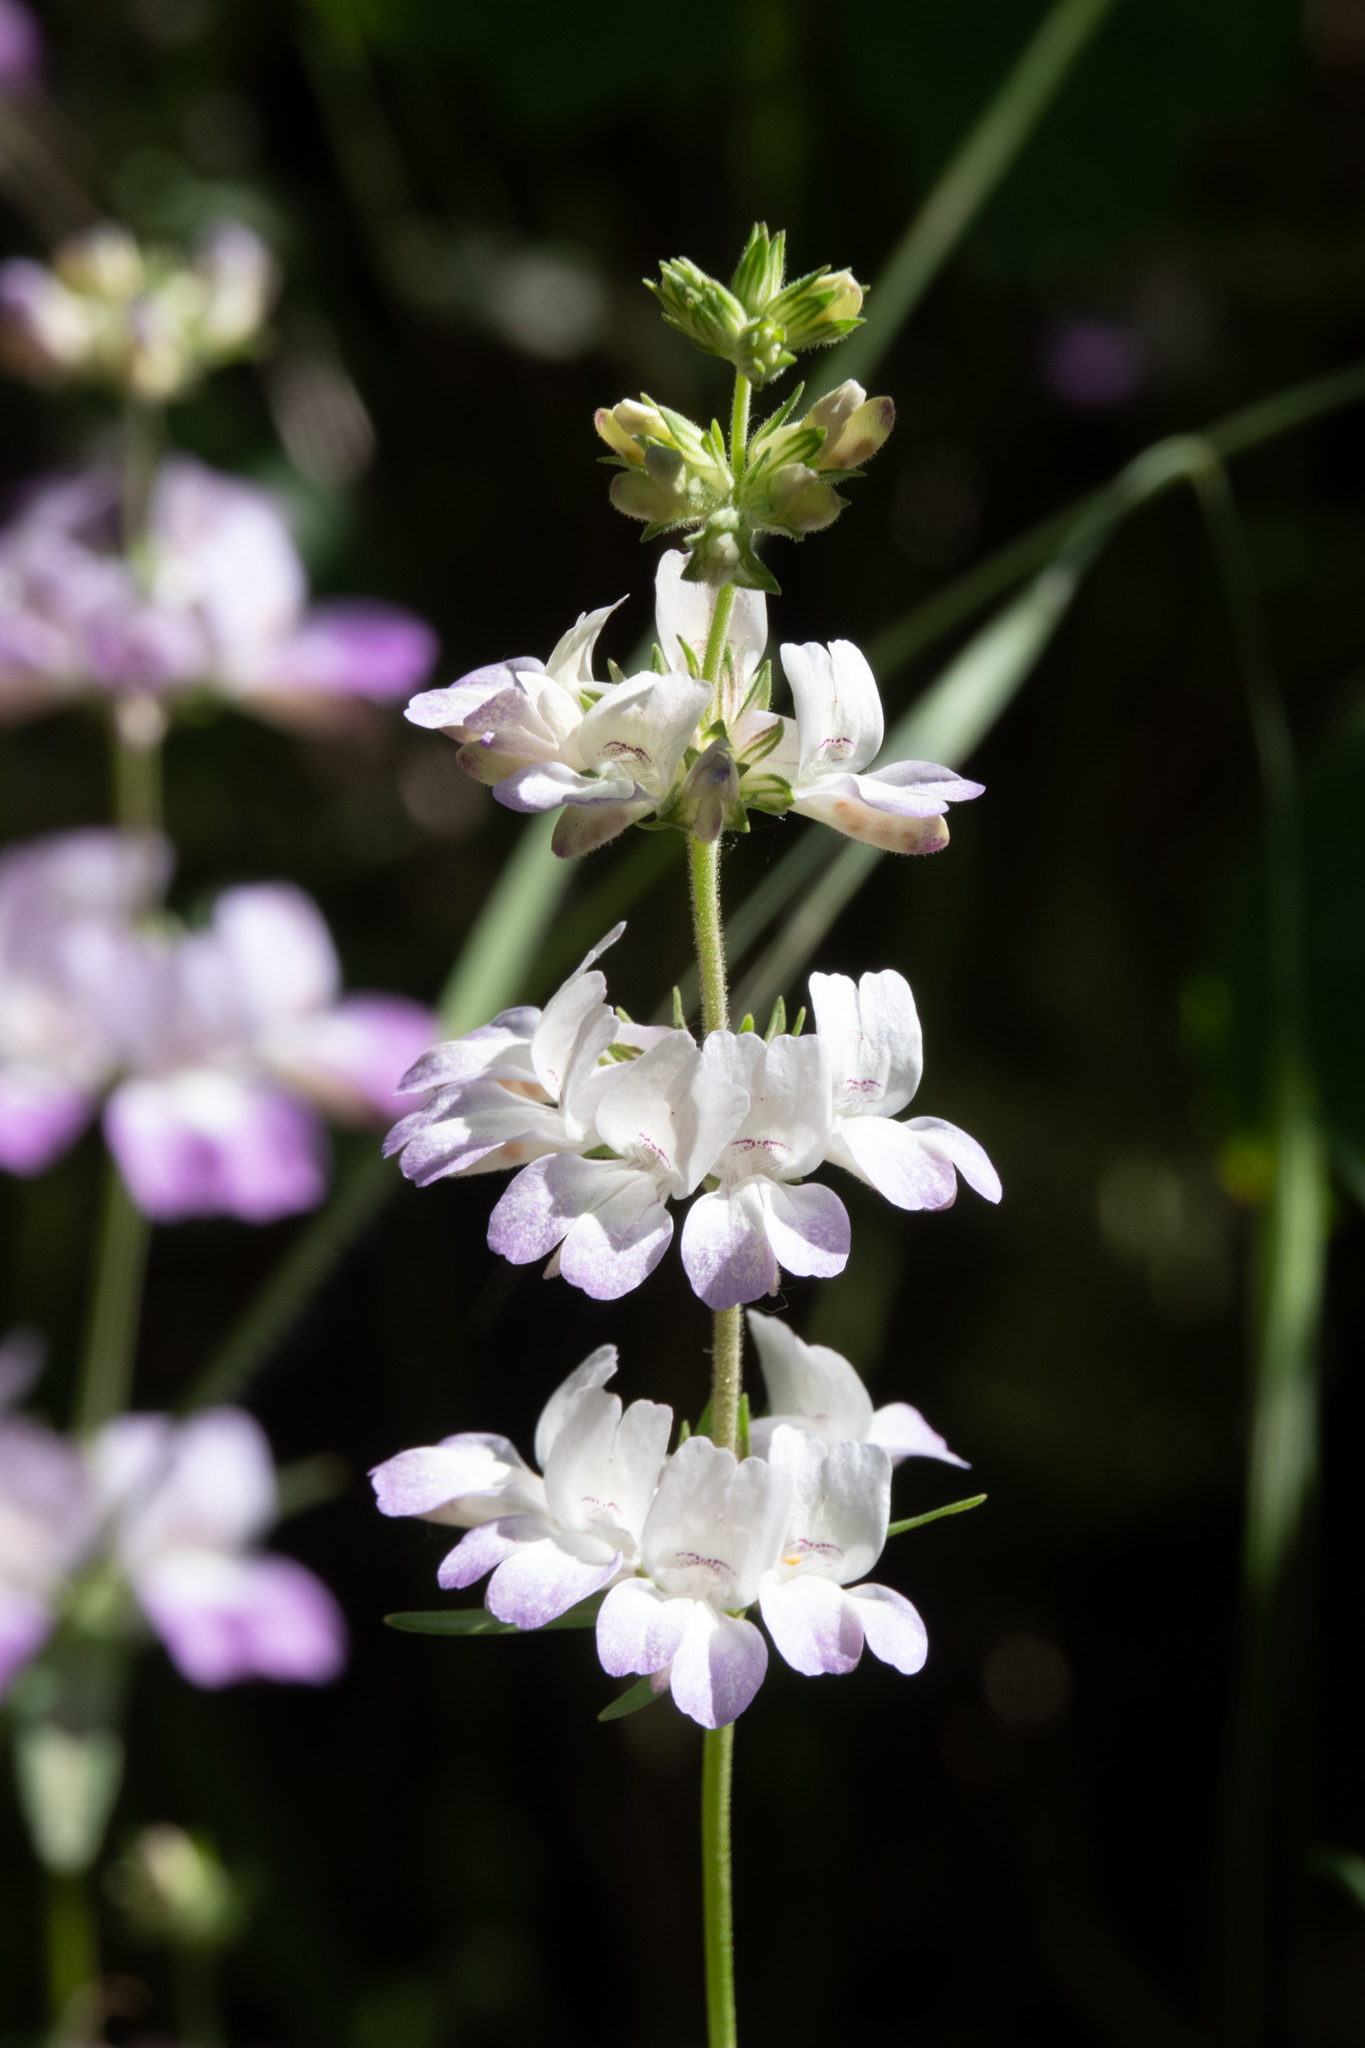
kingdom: Plantae
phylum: Tracheophyta
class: Magnoliopsida
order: Lamiales
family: Plantaginaceae
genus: Collinsia
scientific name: Collinsia heterophylla
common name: Chinese-houses
